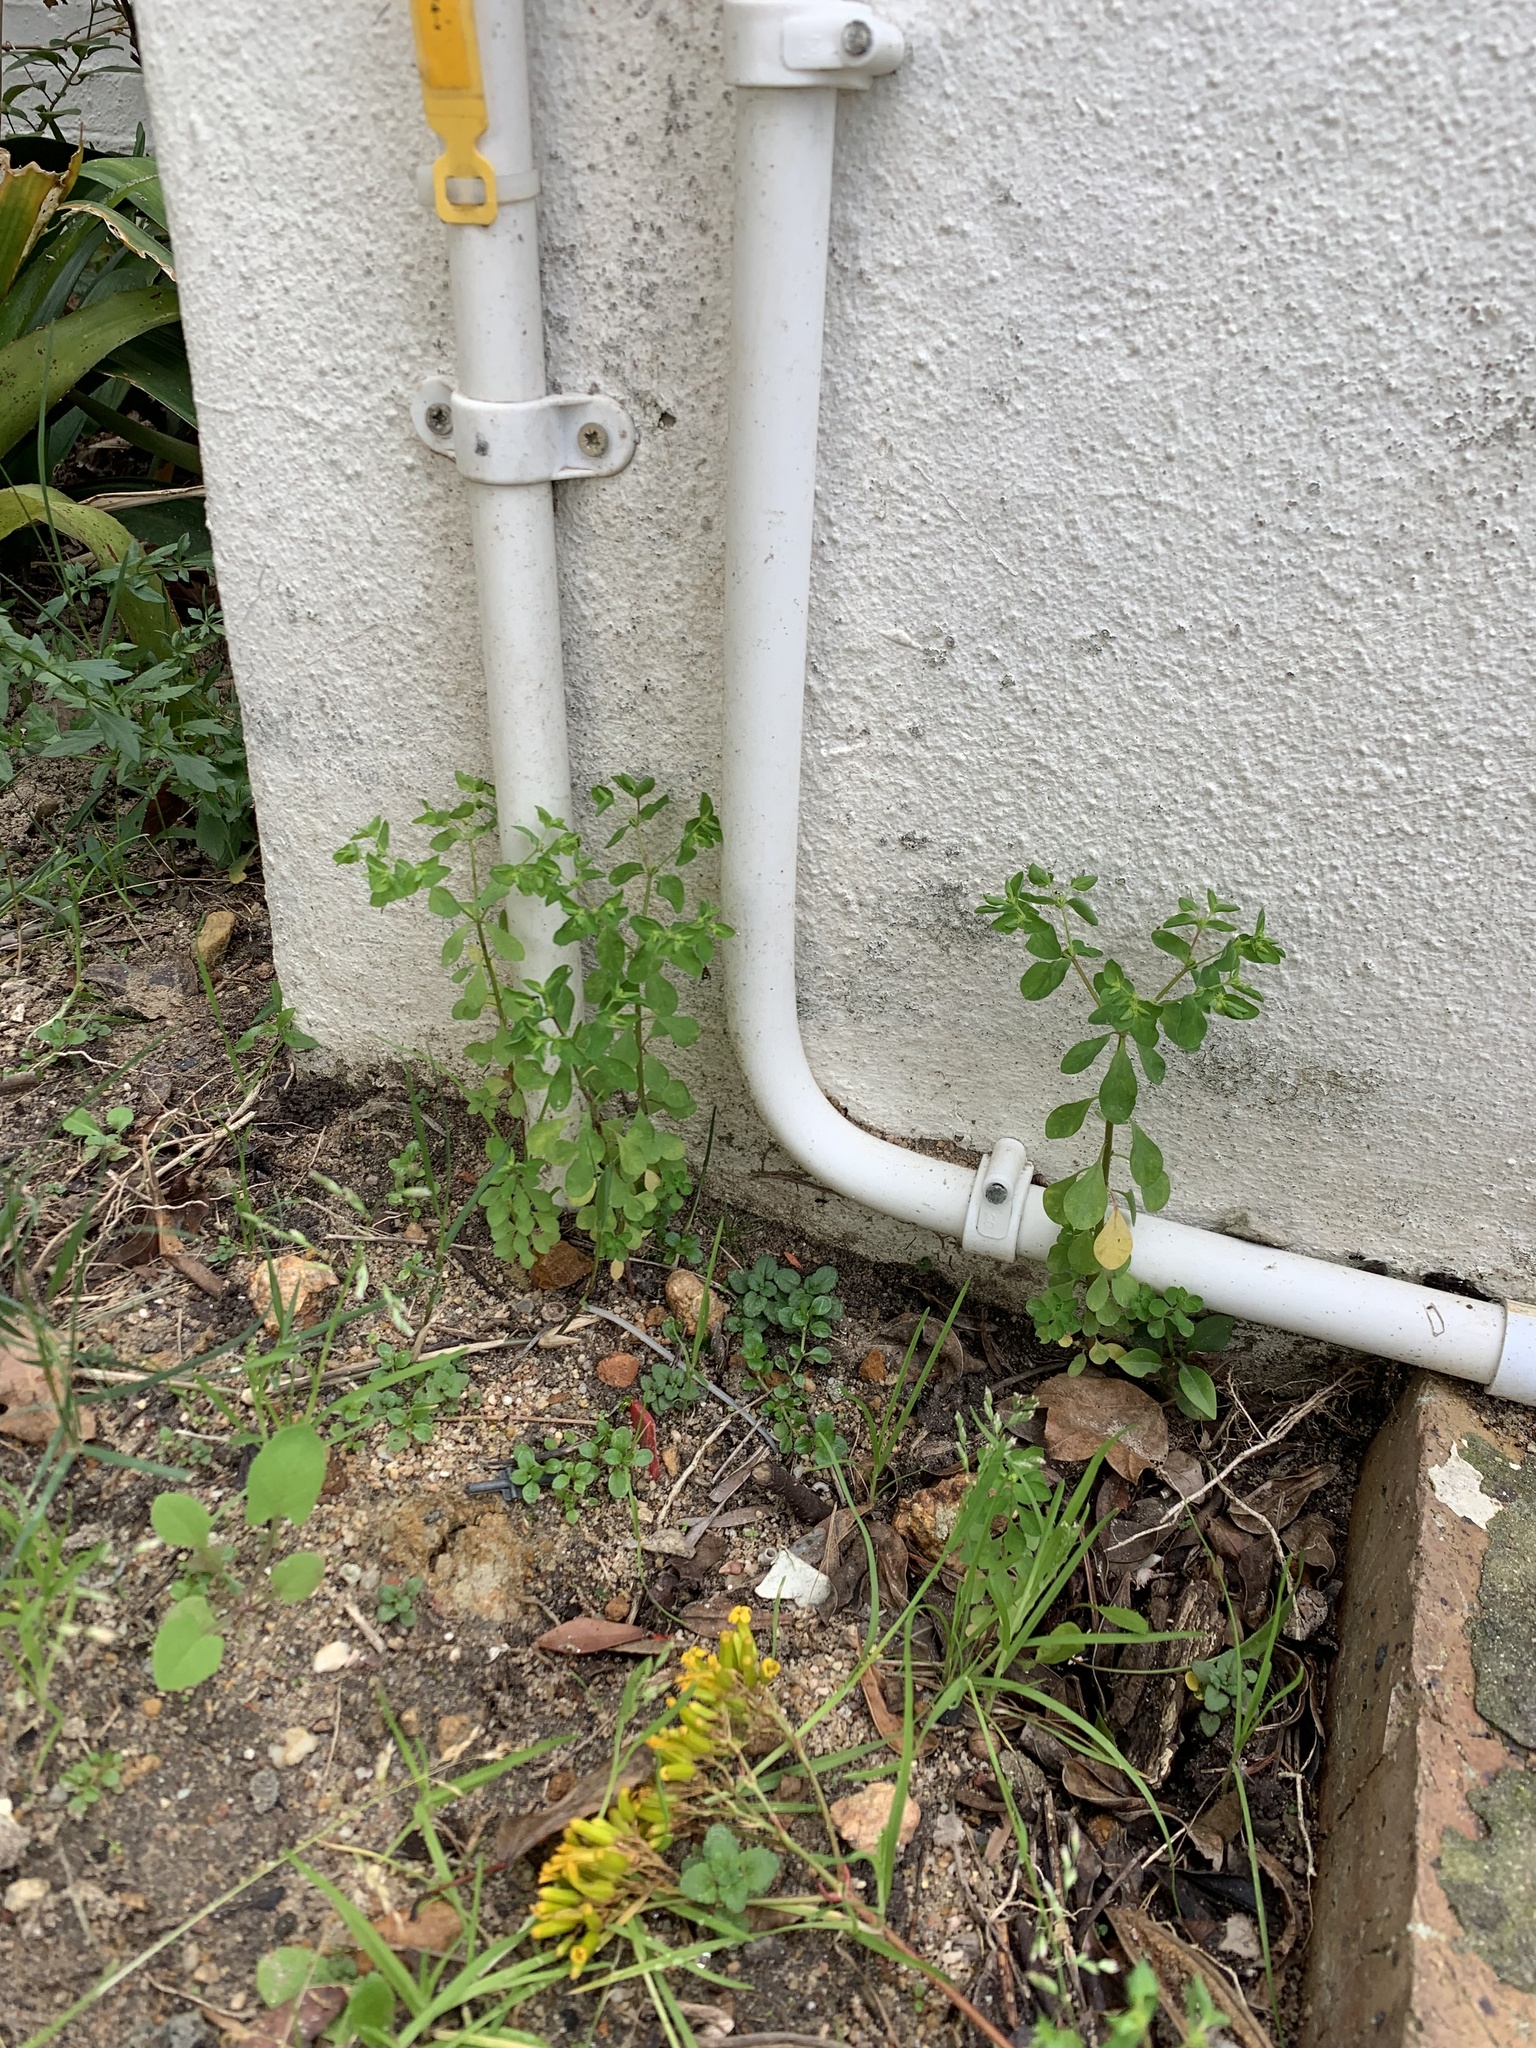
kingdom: Plantae
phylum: Tracheophyta
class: Magnoliopsida
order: Malpighiales
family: Euphorbiaceae
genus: Euphorbia
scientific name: Euphorbia peplus
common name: Petty spurge
